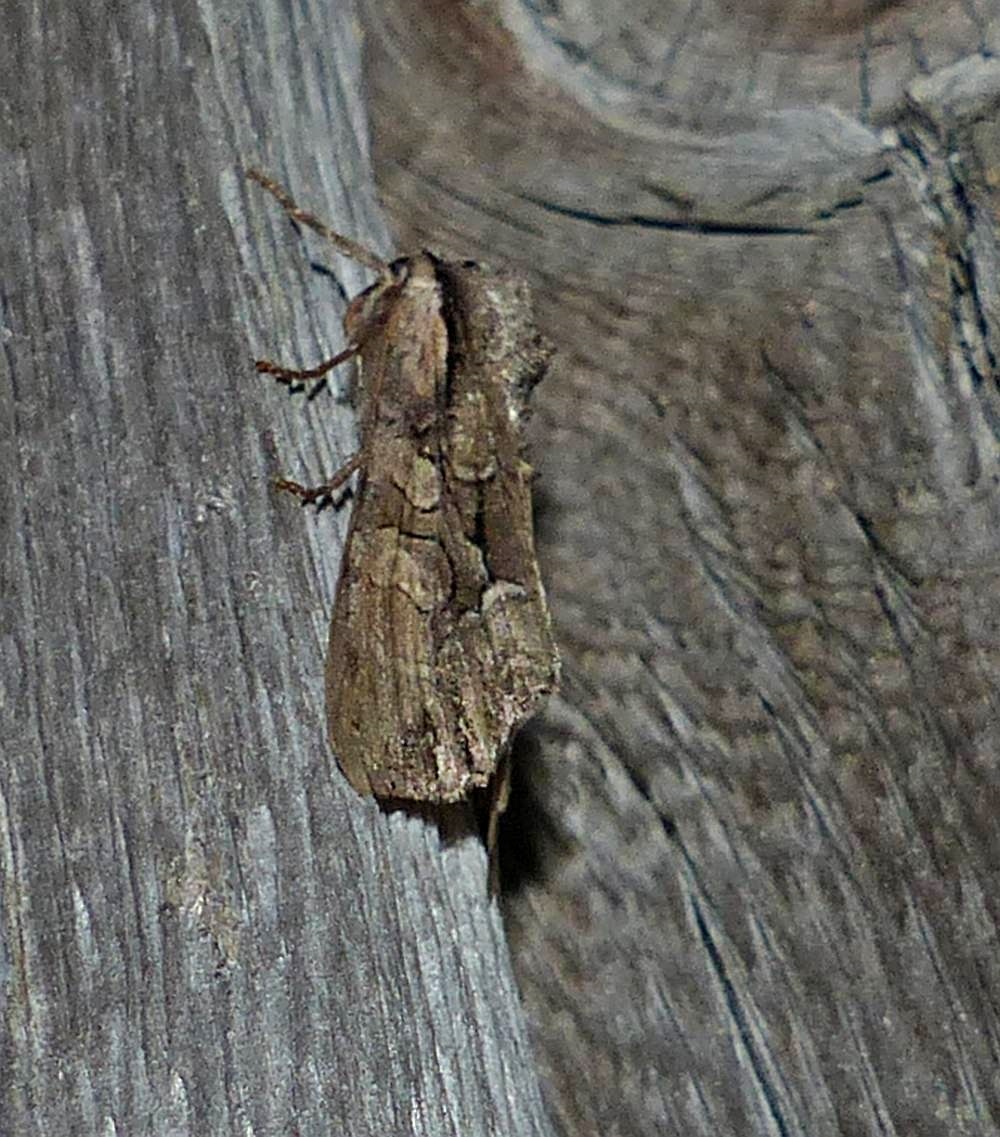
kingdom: Animalia
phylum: Arthropoda
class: Insecta
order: Lepidoptera
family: Noctuidae
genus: Lacanobia
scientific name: Lacanobia subjuncta
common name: Speckled cutworm moth
